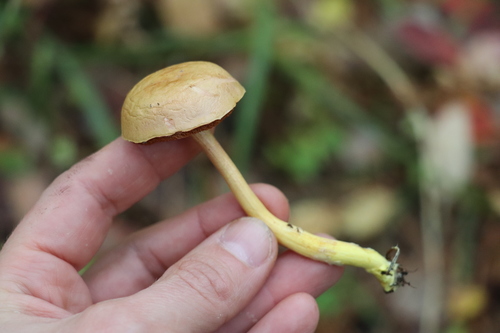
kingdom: Fungi
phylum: Basidiomycota
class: Agaricomycetes
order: Boletales
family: Boletaceae
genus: Chalciporus
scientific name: Chalciporus piperatus
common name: Peppery bolete
